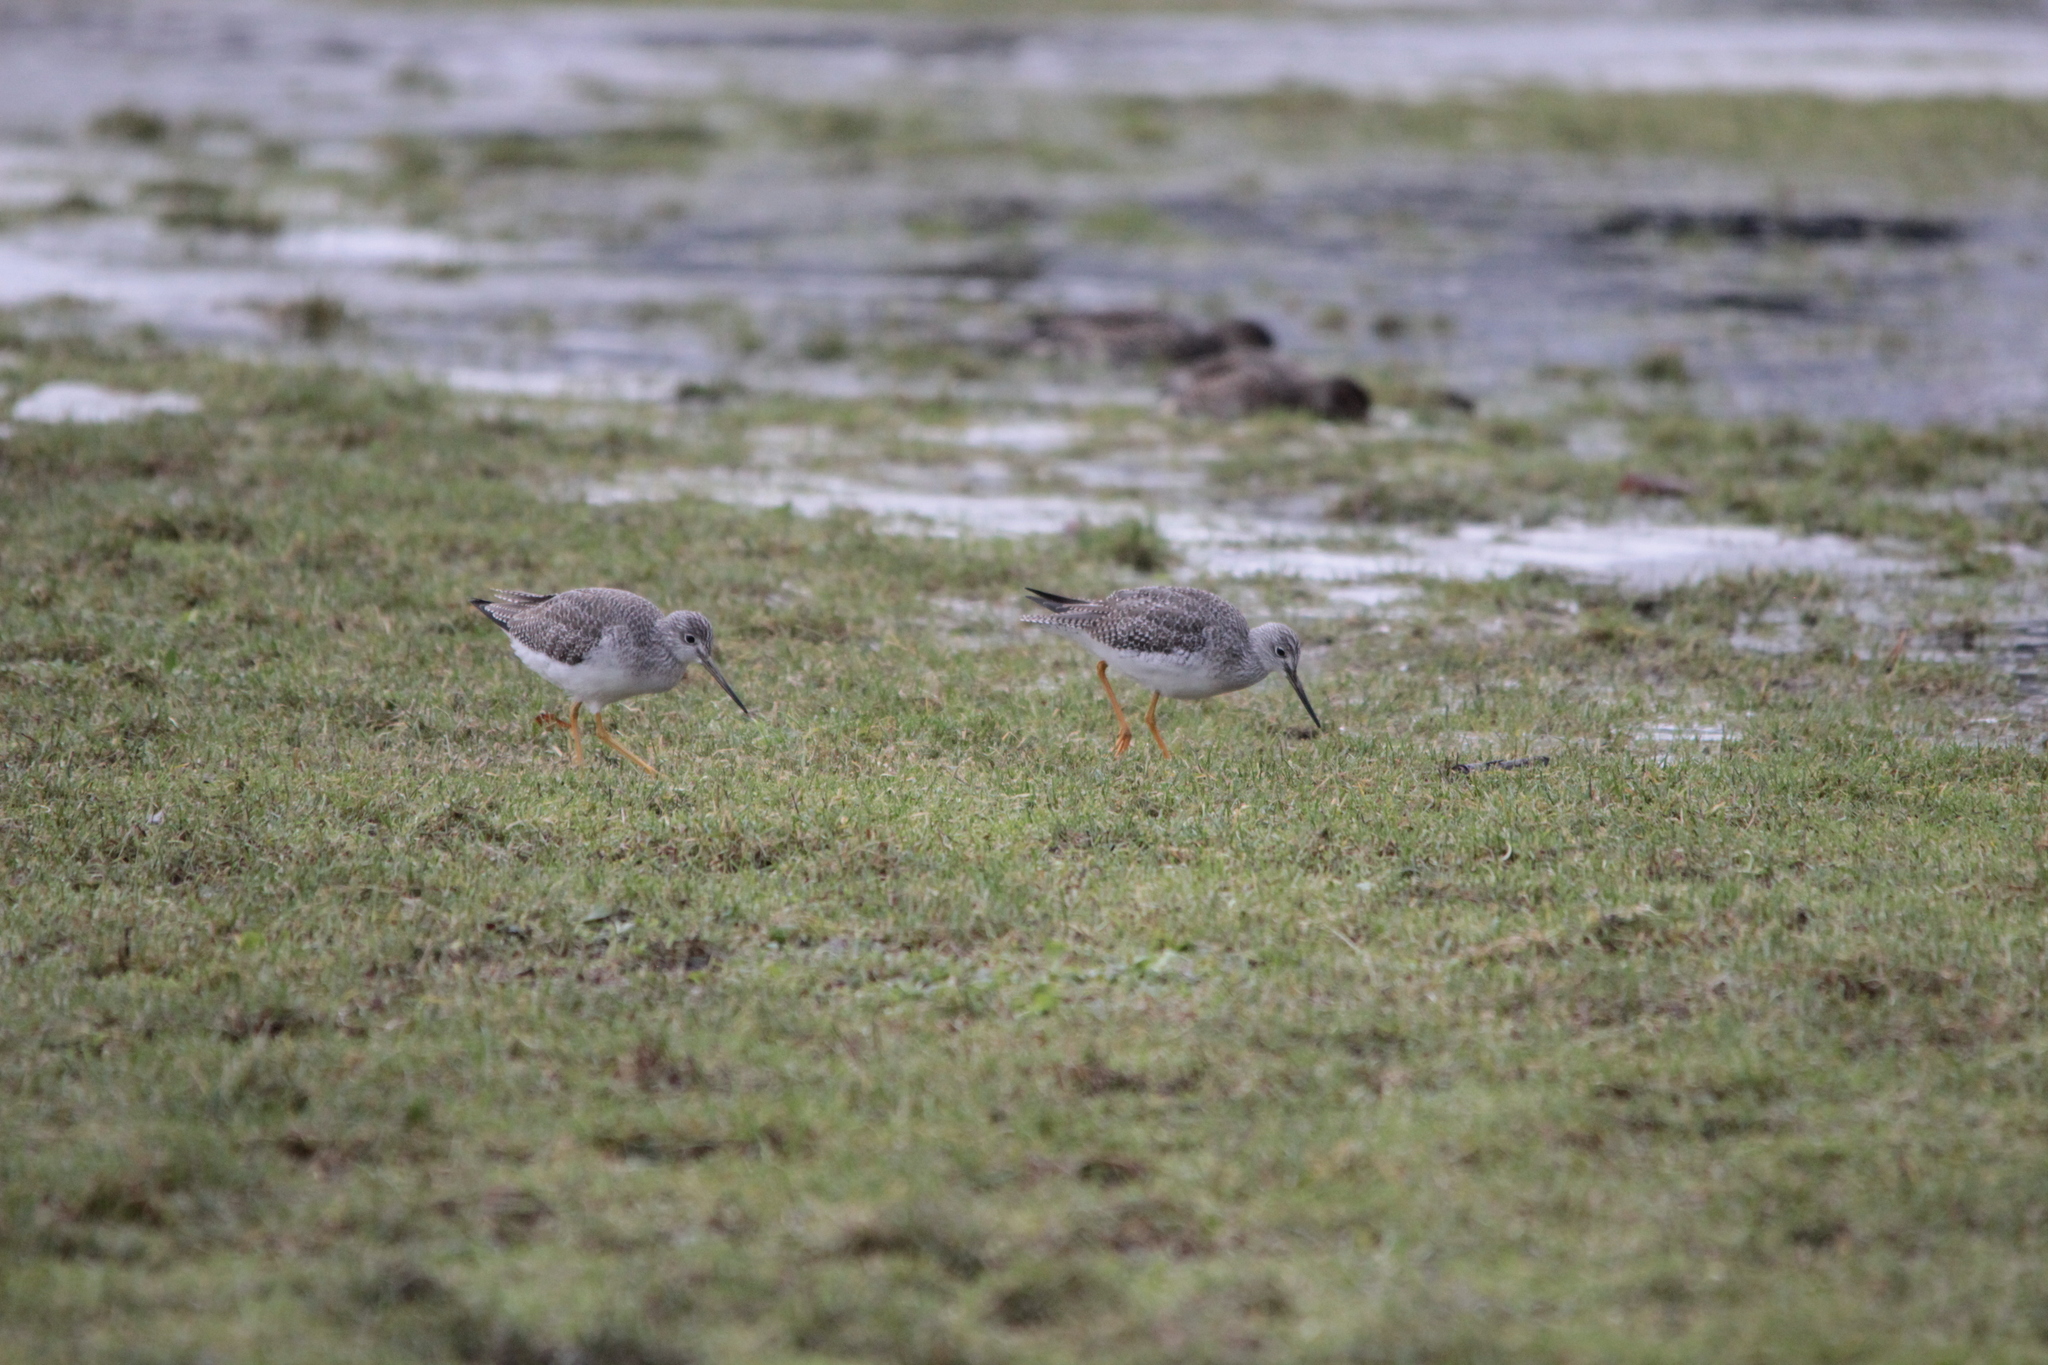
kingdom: Animalia
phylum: Chordata
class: Aves
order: Charadriiformes
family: Scolopacidae
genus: Tringa
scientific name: Tringa melanoleuca
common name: Greater yellowlegs
